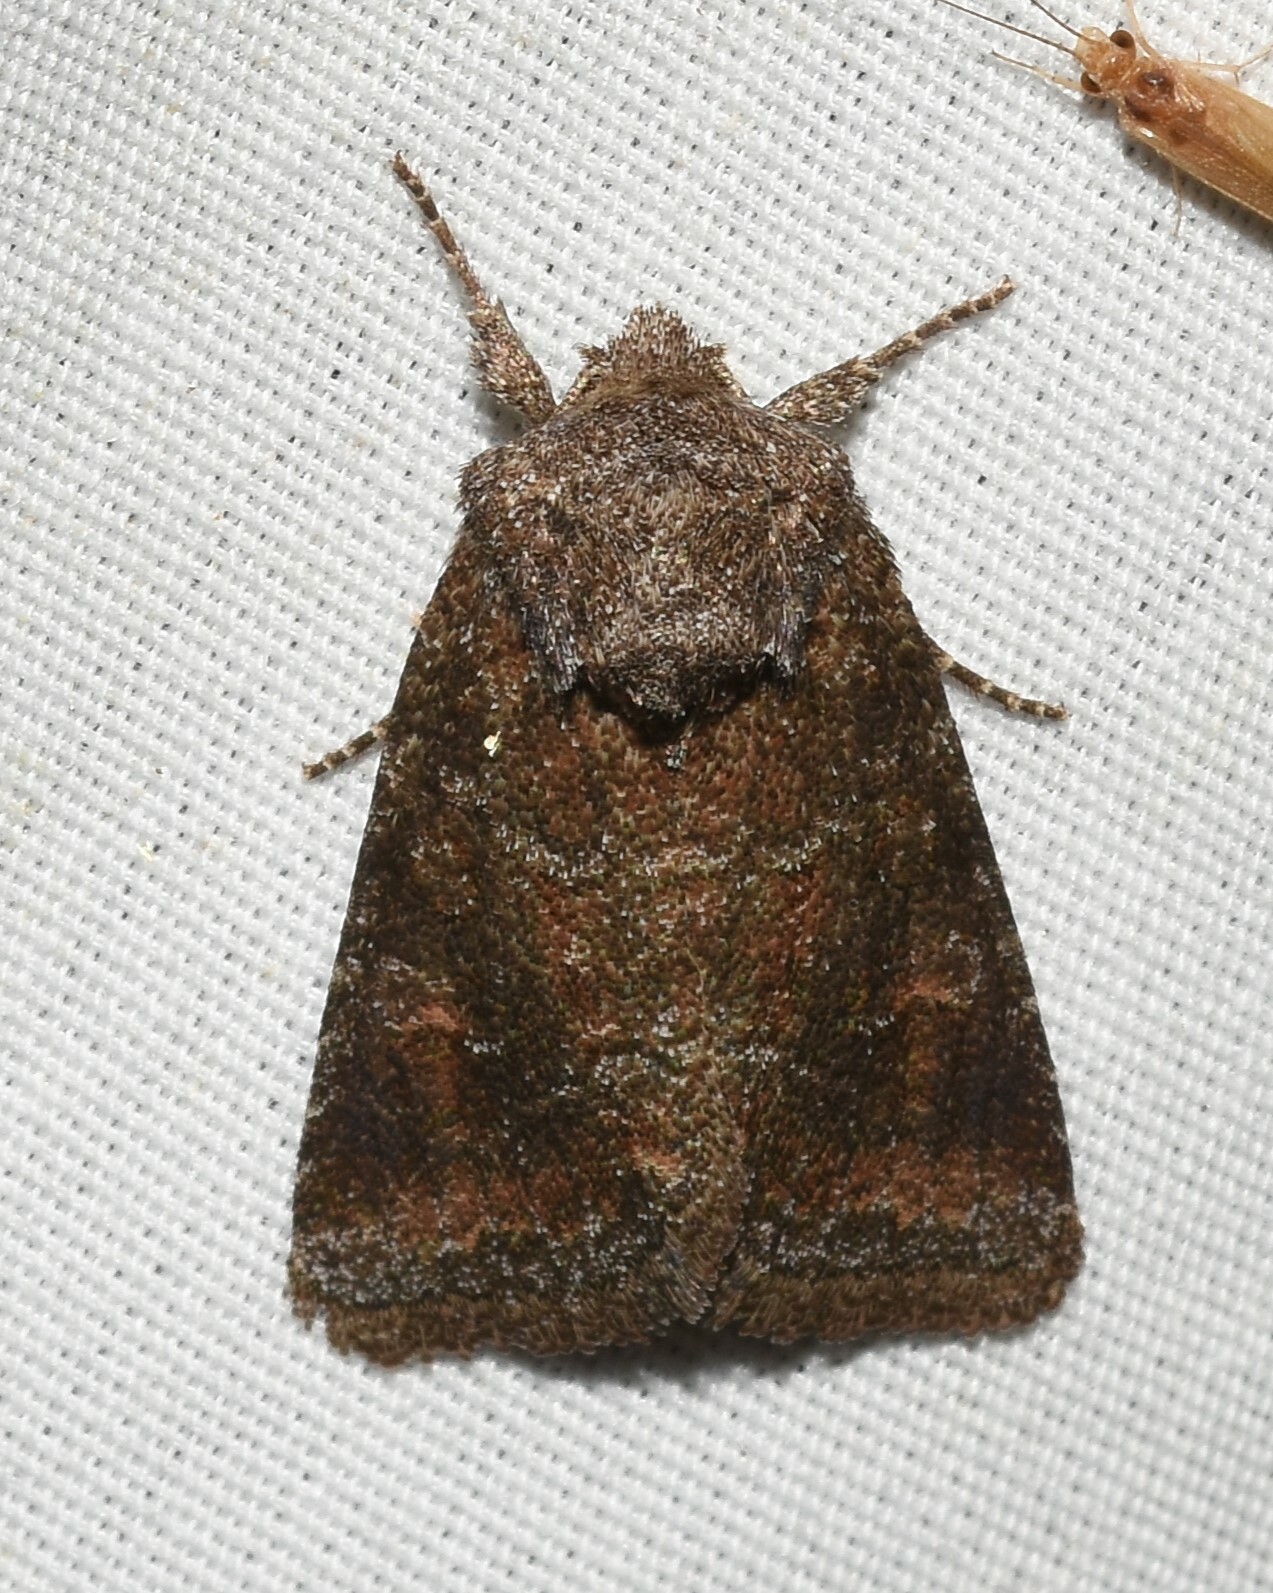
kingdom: Animalia
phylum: Arthropoda
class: Insecta
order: Lepidoptera
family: Noctuidae
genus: Lacinipolia
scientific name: Lacinipolia meditata
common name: Thinker moth
